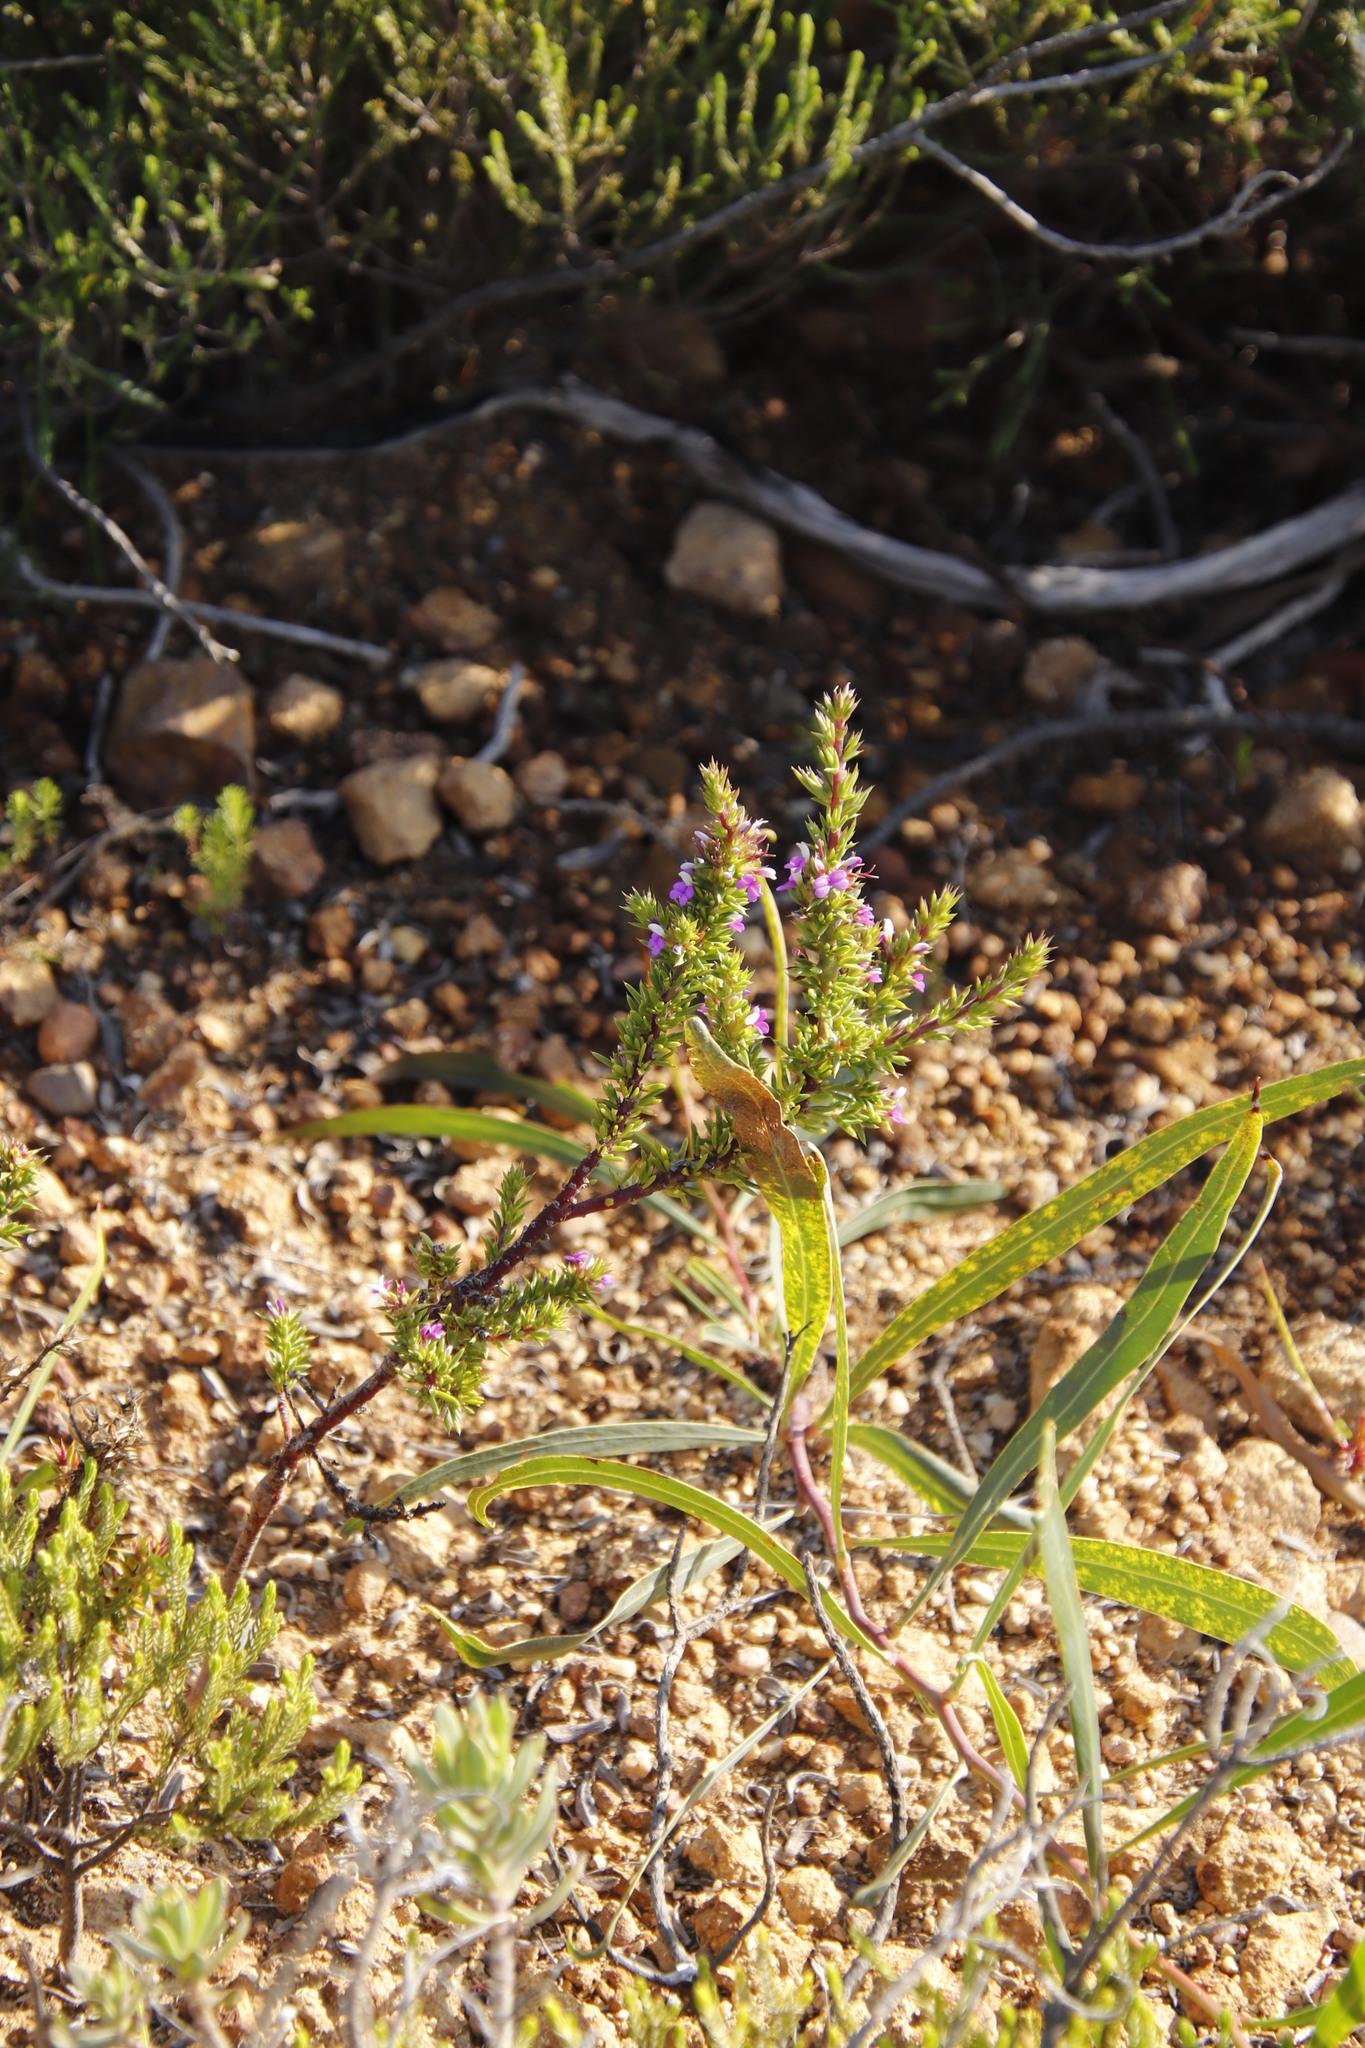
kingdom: Plantae
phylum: Tracheophyta
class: Magnoliopsida
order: Fabales
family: Polygalaceae
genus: Muraltia
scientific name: Muraltia heisteria
